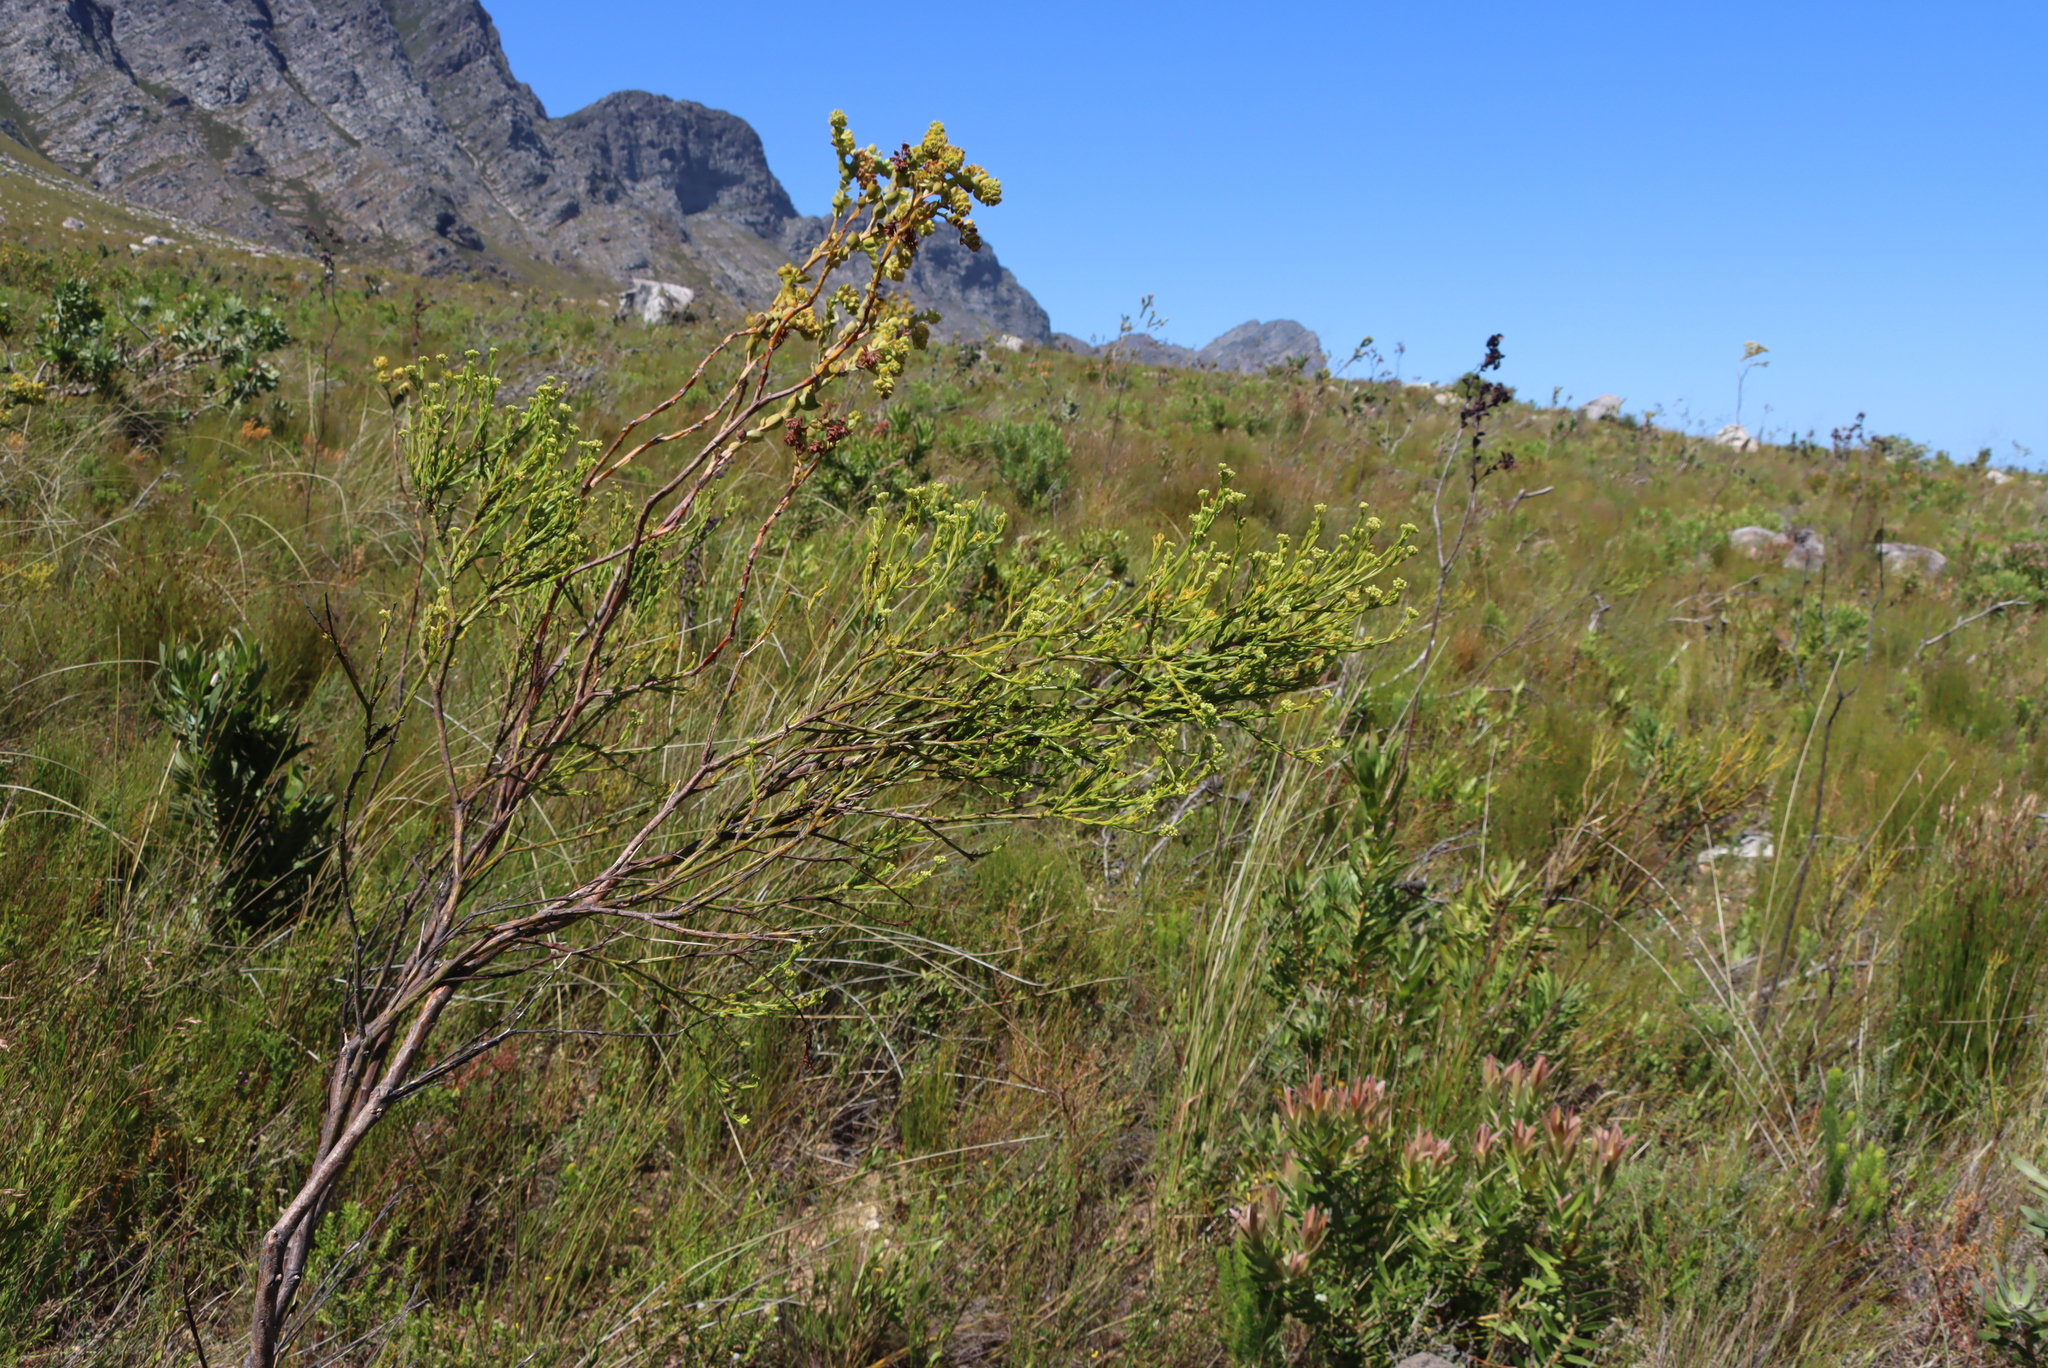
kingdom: Plantae
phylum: Tracheophyta
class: Magnoliopsida
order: Santalales
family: Thesiaceae
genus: Thesium
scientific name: Thesium euphorbioides
